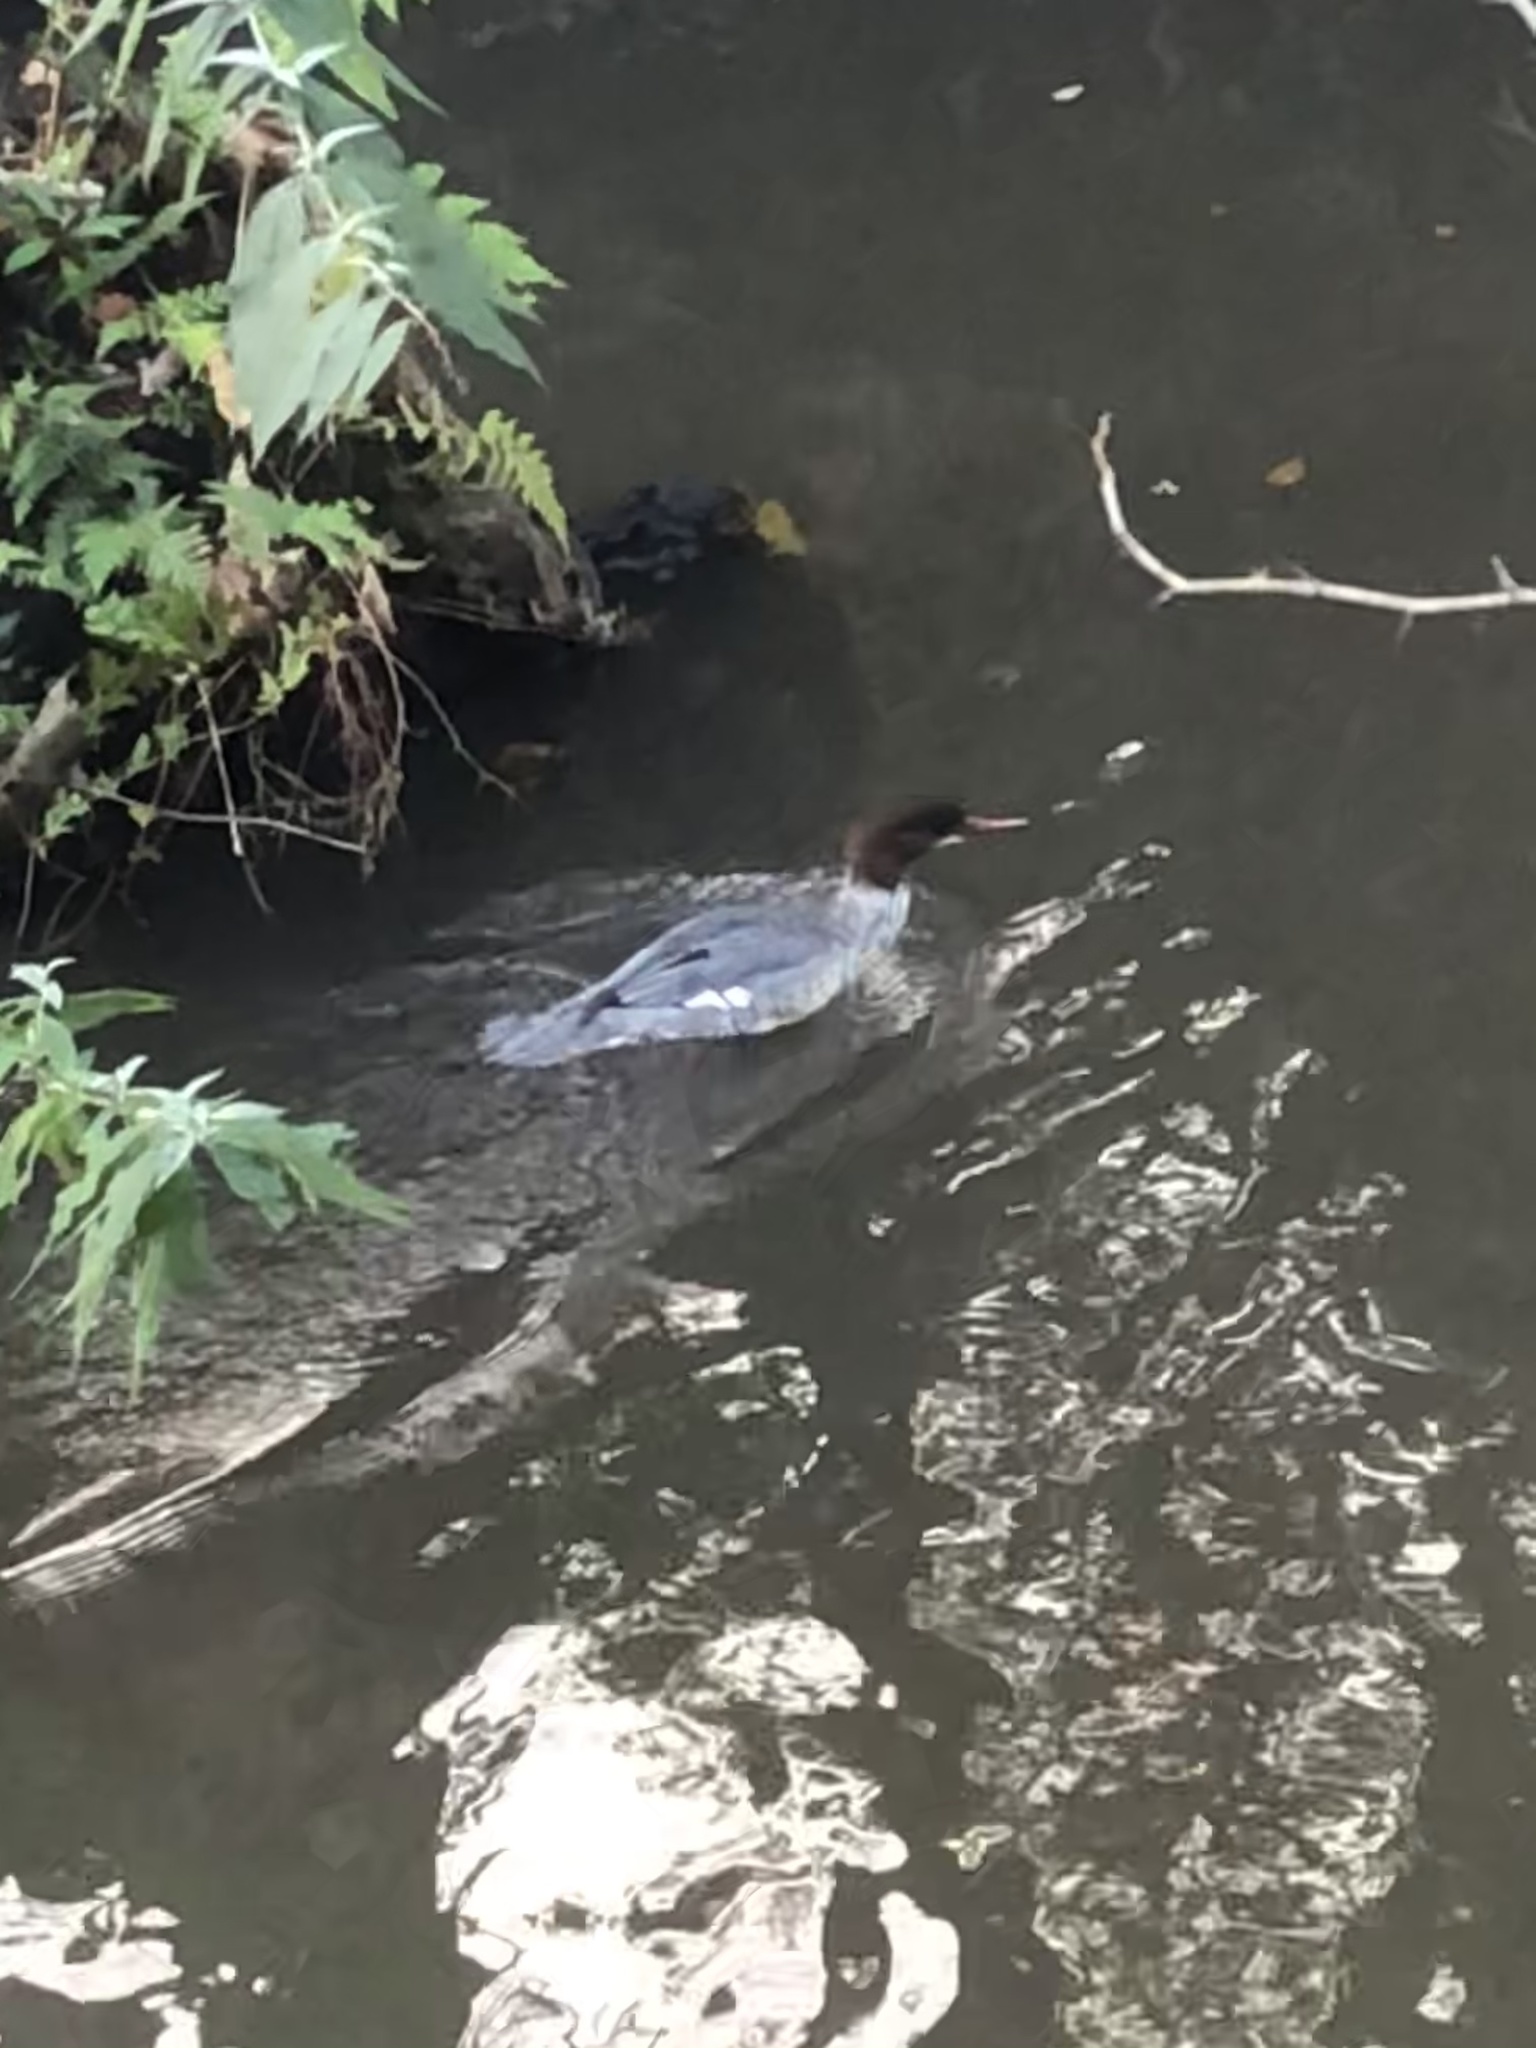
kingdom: Animalia
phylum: Chordata
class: Aves
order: Anseriformes
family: Anatidae
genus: Mergus
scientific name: Mergus merganser
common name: Common merganser
